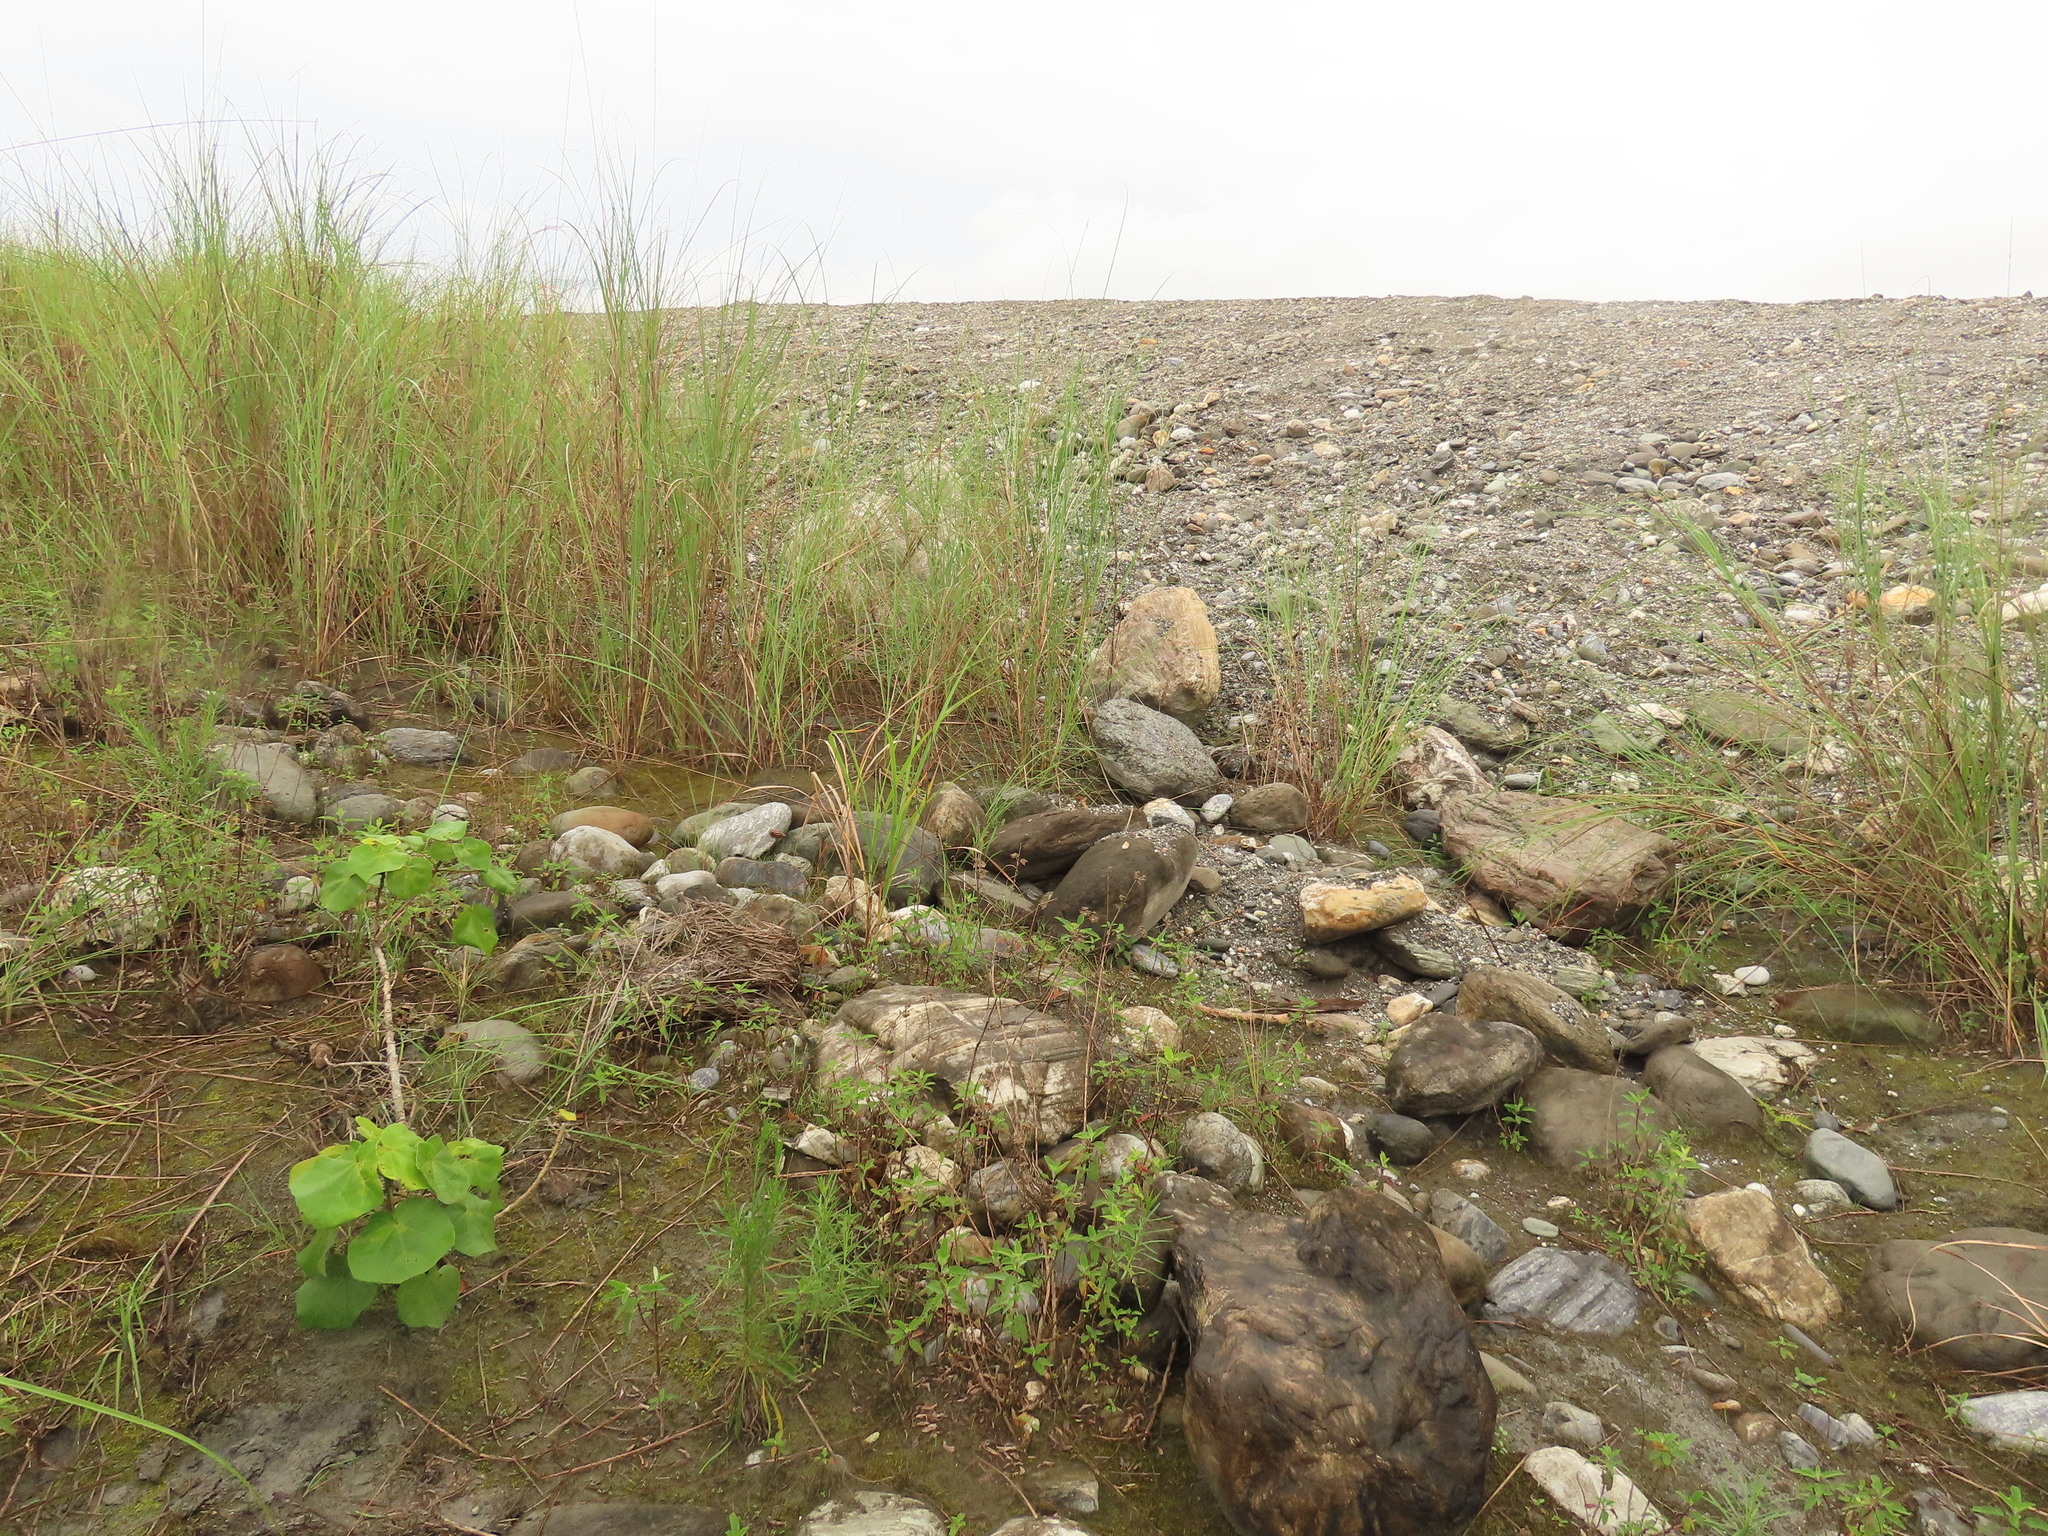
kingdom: Plantae
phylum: Tracheophyta
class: Magnoliopsida
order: Asterales
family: Asteraceae
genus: Heteropappus
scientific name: Heteropappus altaicus
